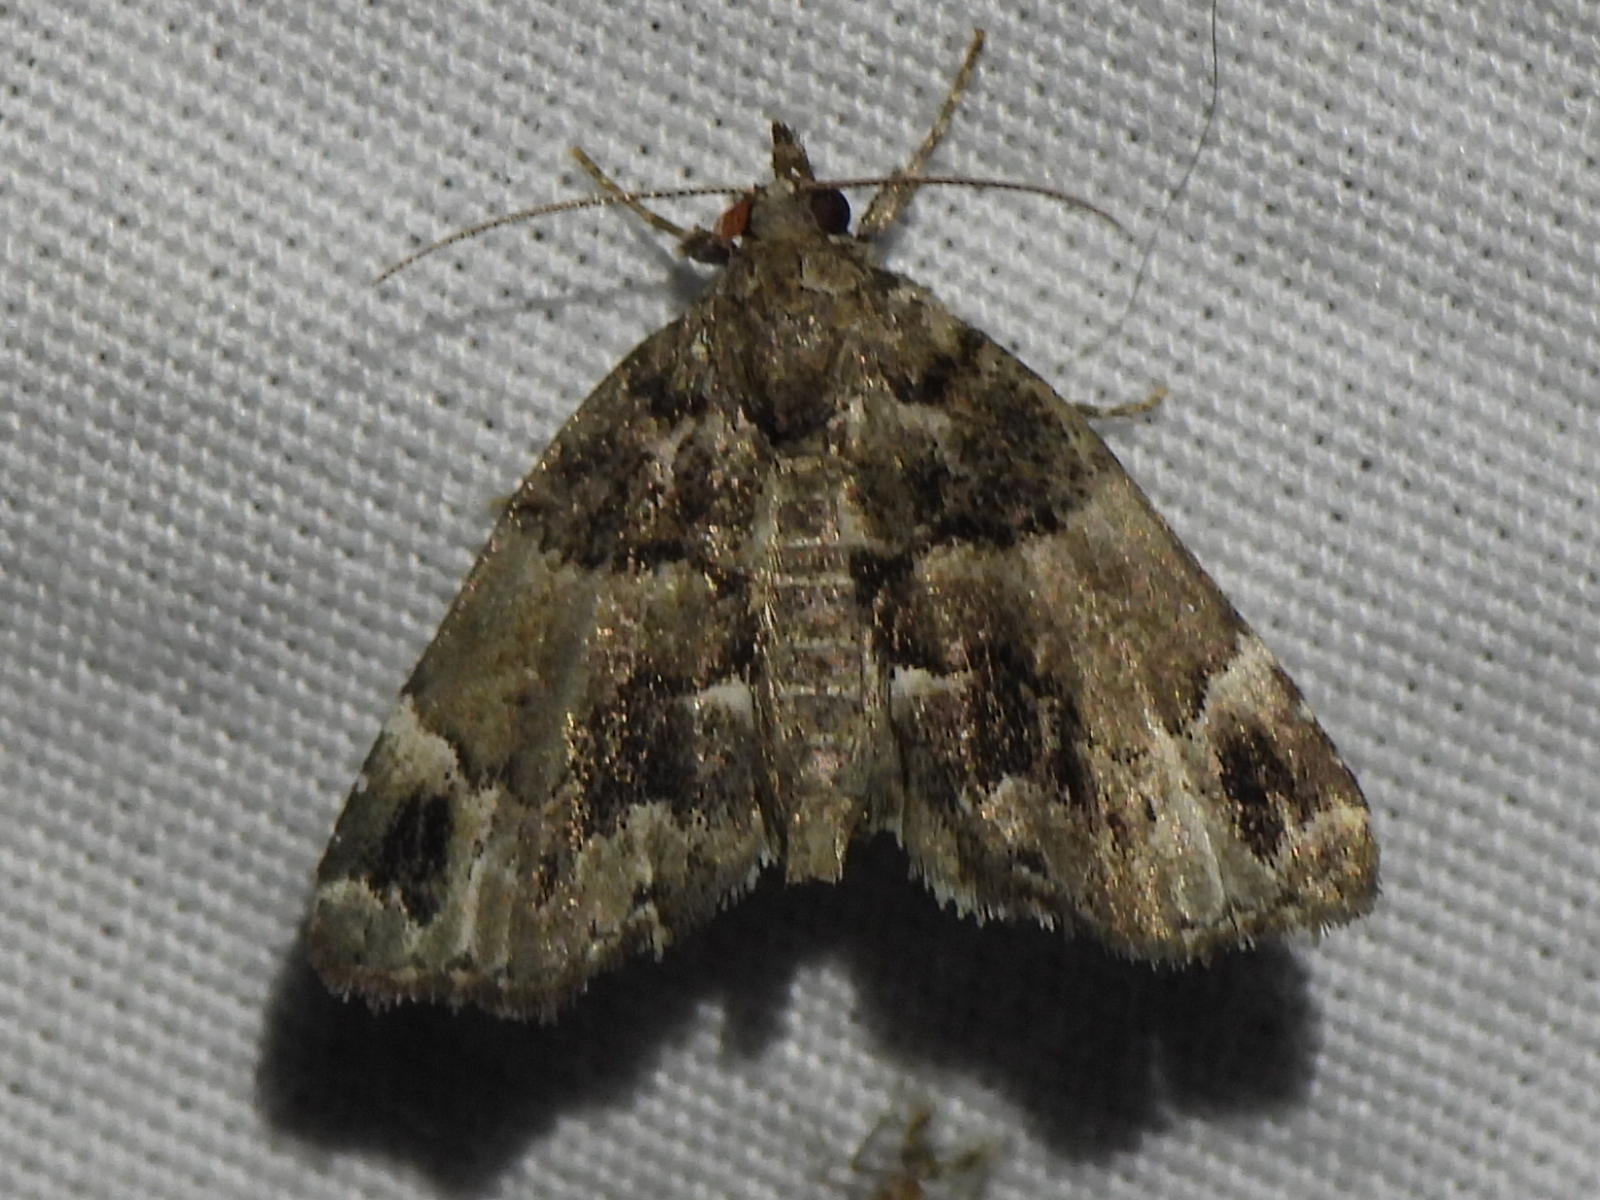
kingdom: Animalia
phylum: Arthropoda
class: Insecta
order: Lepidoptera
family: Erebidae
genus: Cutina
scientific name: Cutina distincta
